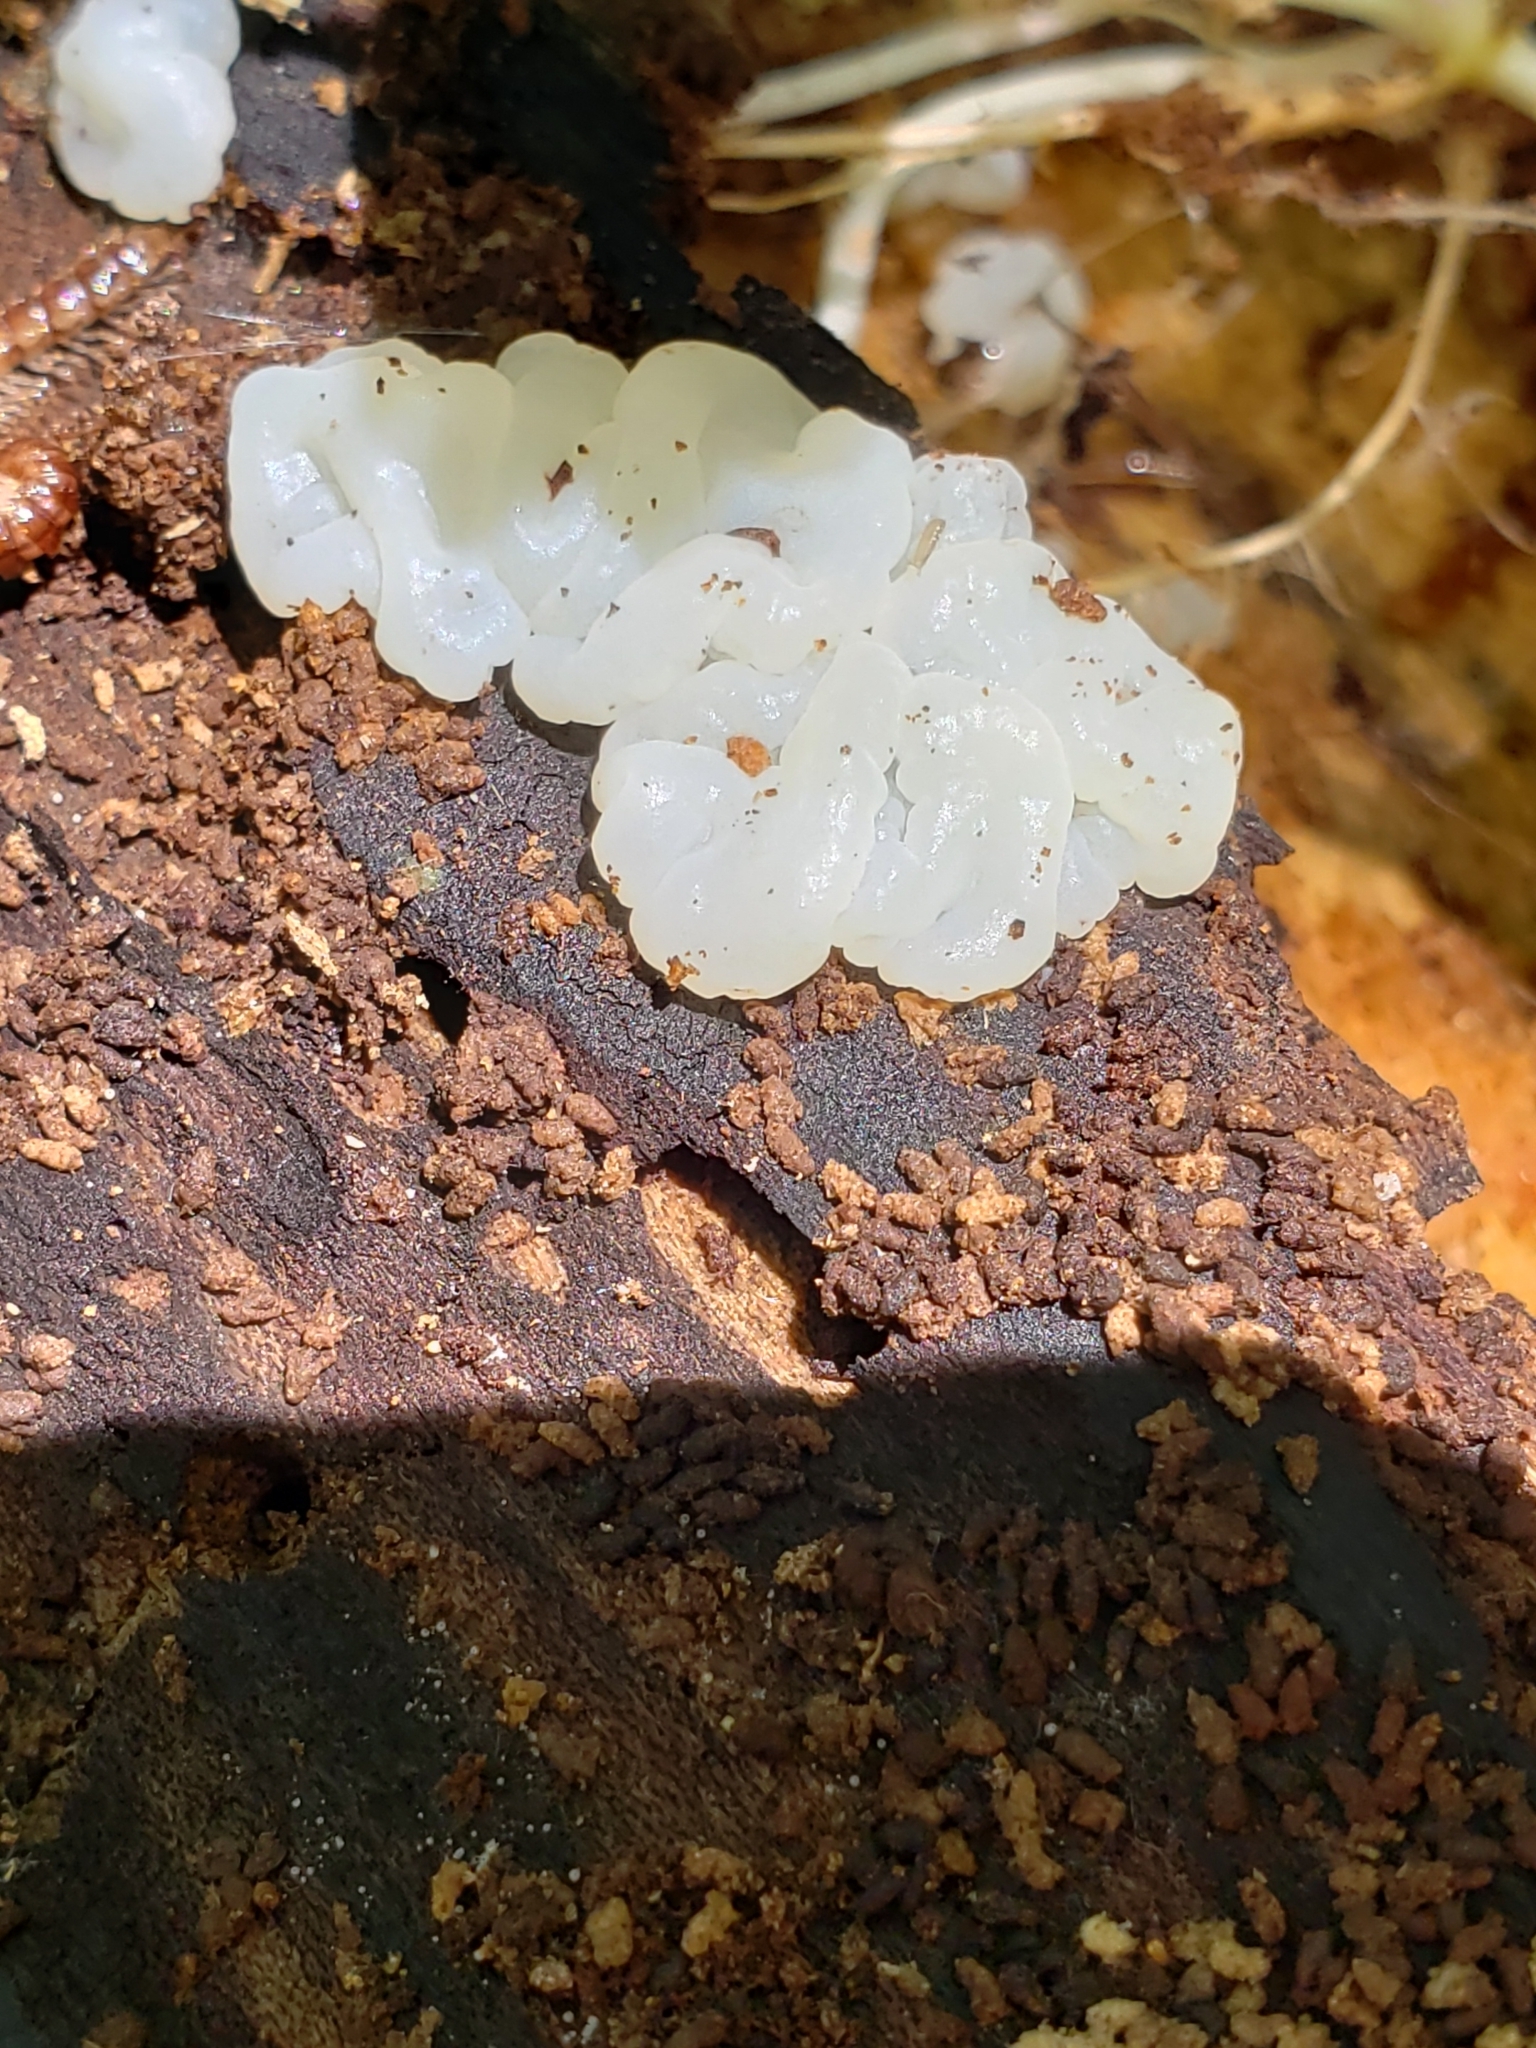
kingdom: Fungi
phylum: Basidiomycota
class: Agaricomycetes
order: Auriculariales
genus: Ductifera
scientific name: Ductifera pululahuana
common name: White jelly fungus
